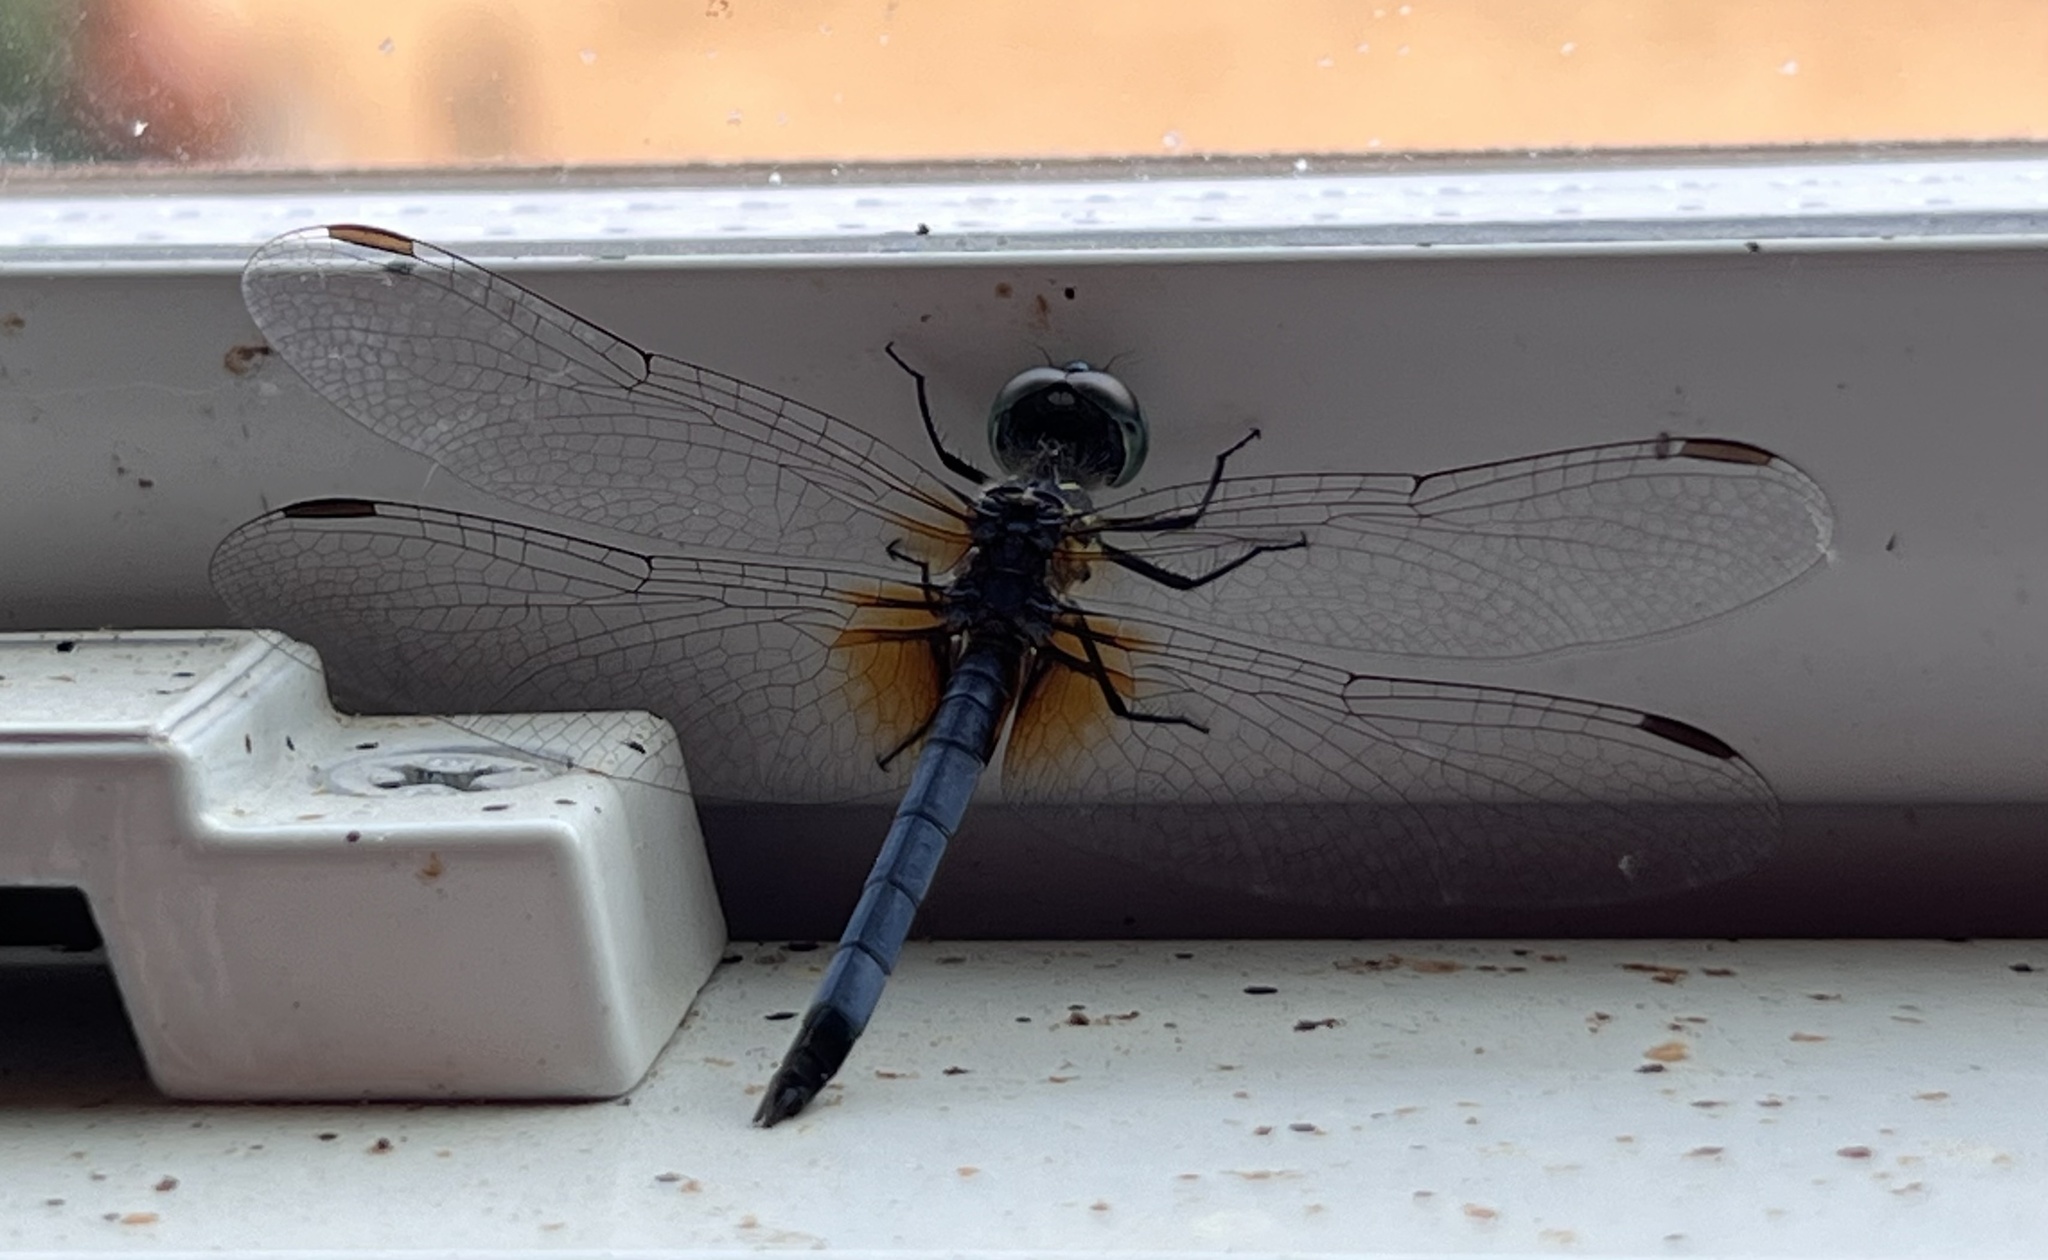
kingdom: Animalia
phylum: Arthropoda
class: Insecta
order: Odonata
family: Libellulidae
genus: Pachydiplax
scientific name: Pachydiplax longipennis
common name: Blue dasher
